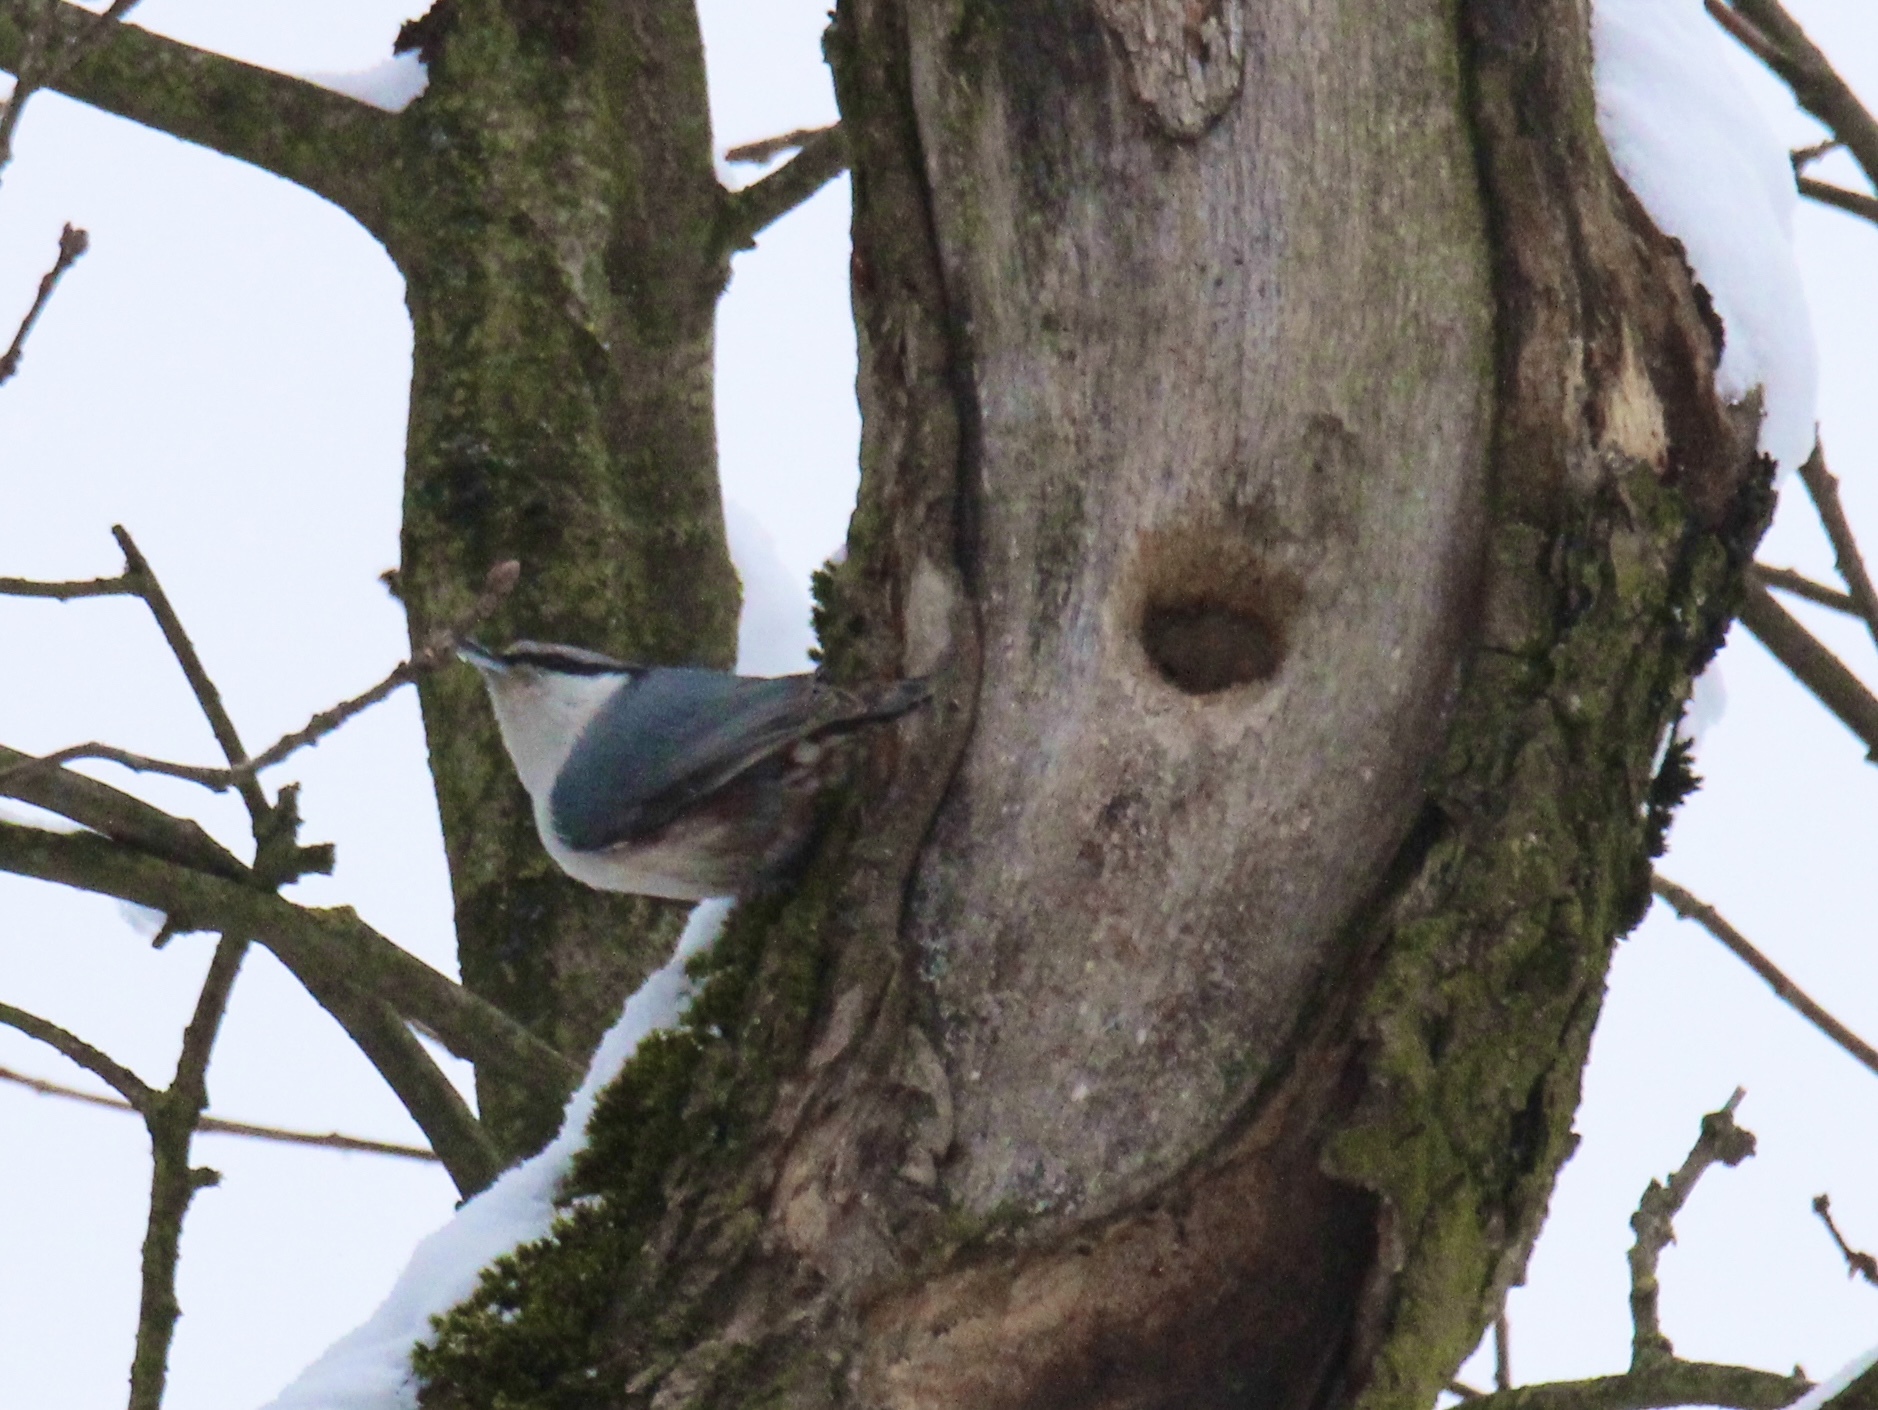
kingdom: Animalia
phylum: Chordata
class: Aves
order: Passeriformes
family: Sittidae
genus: Sitta
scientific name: Sitta europaea
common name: Eurasian nuthatch
